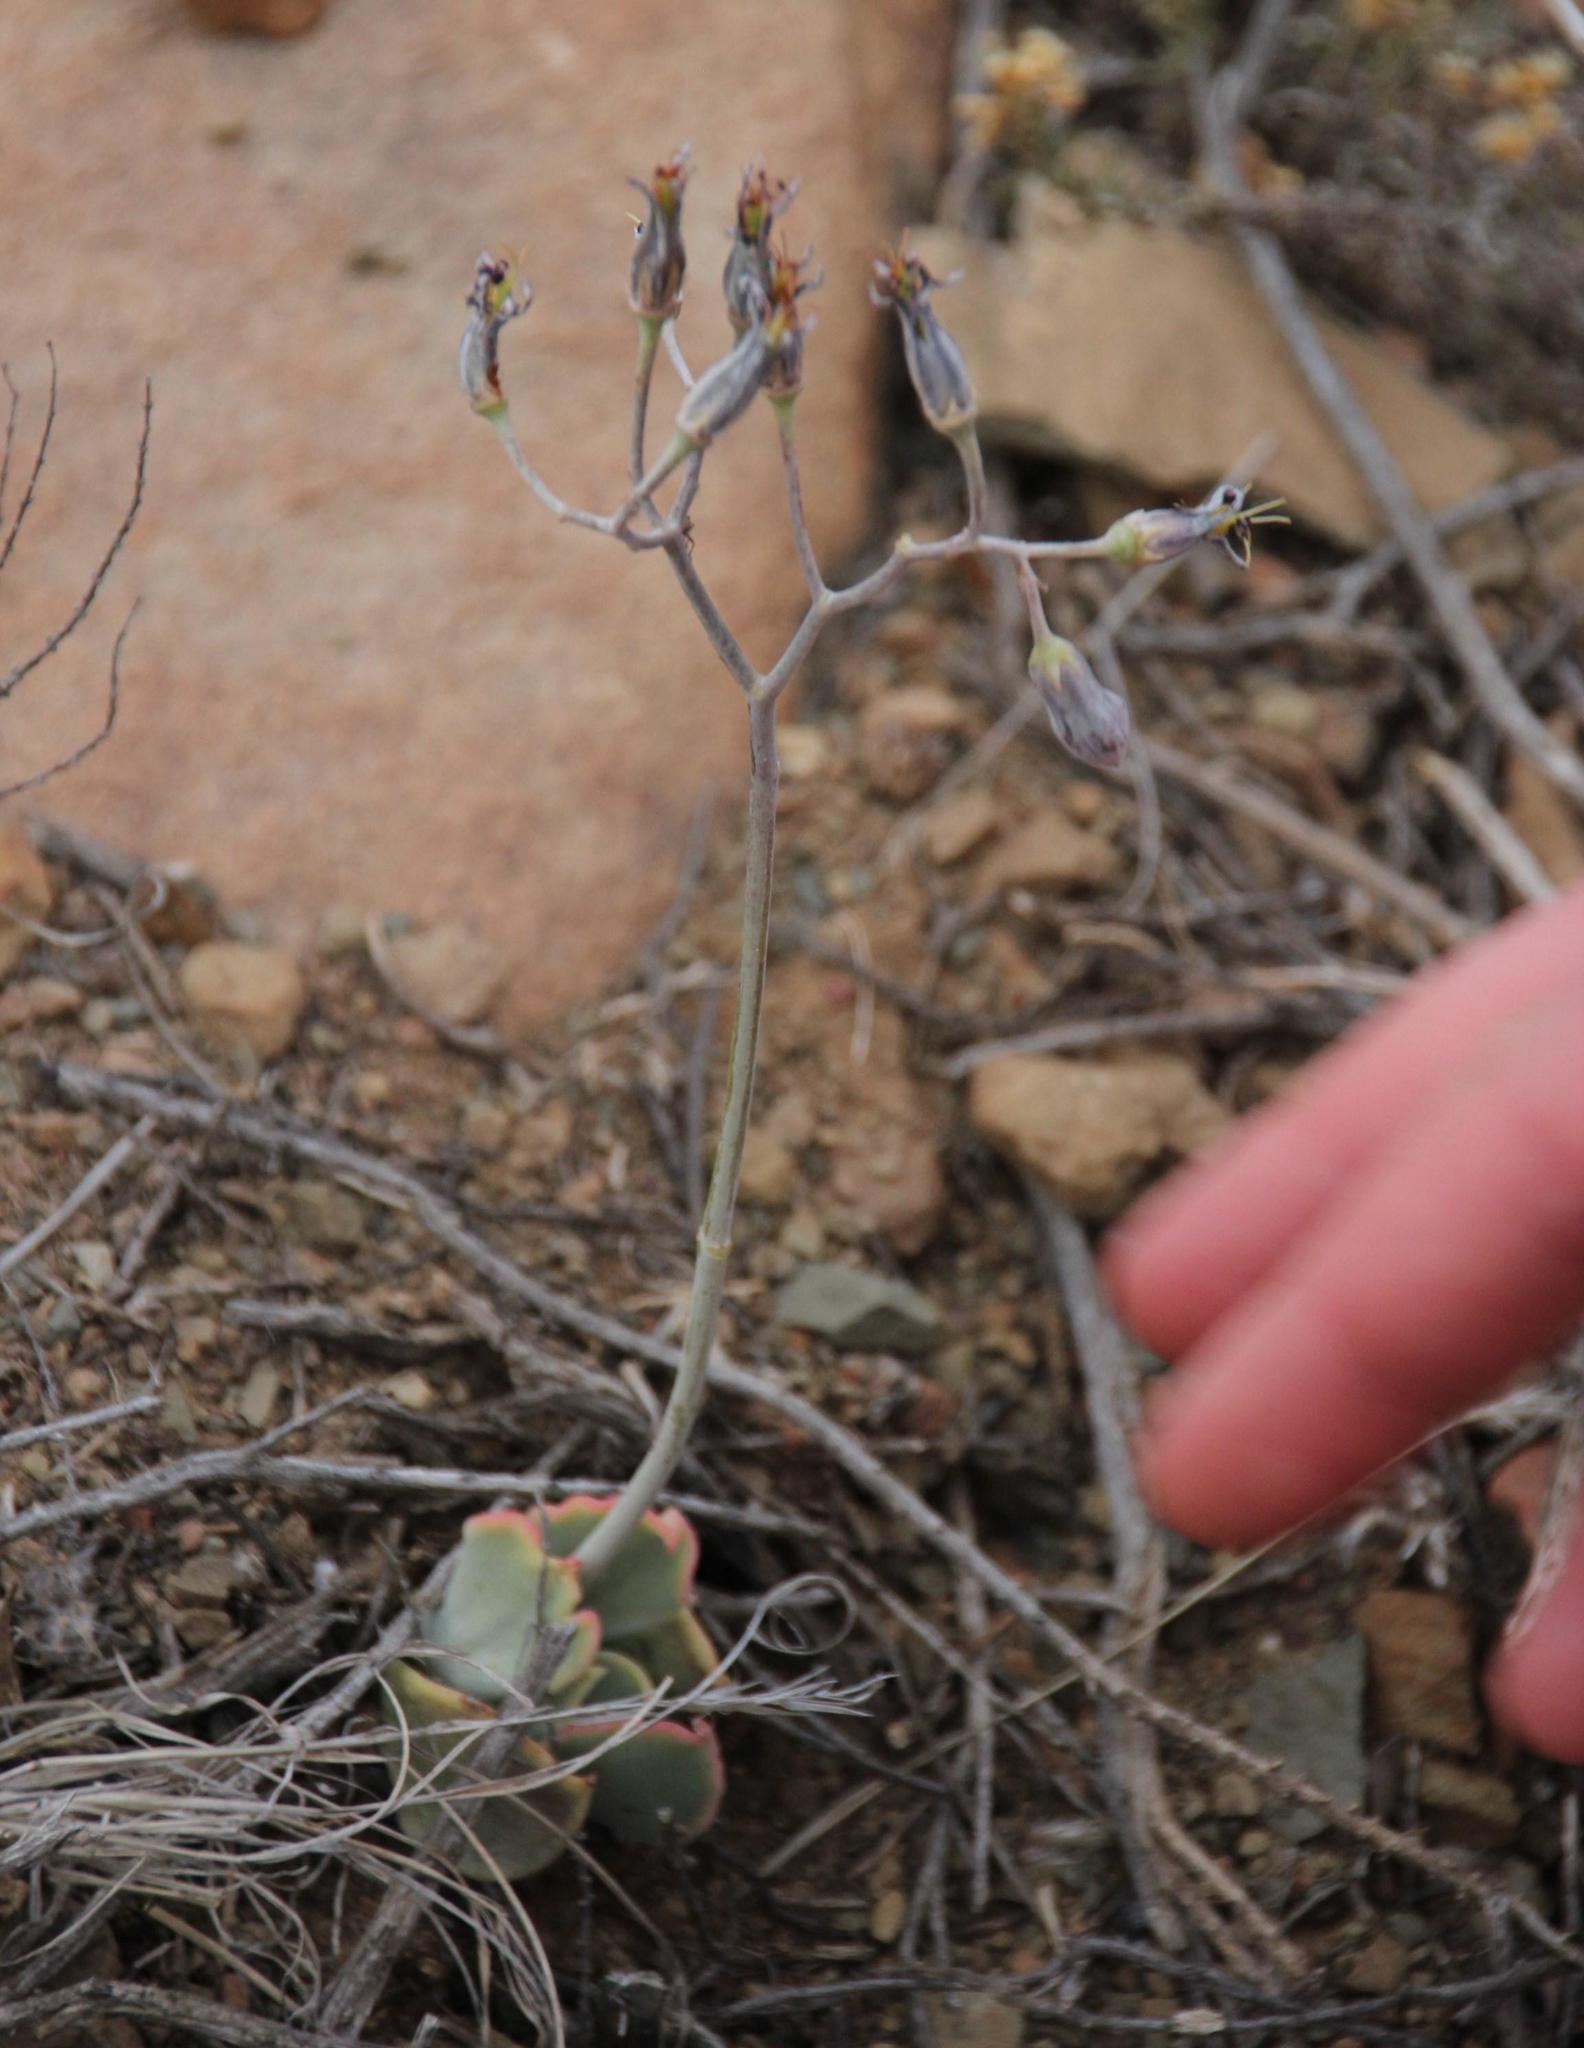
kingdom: Plantae
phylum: Tracheophyta
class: Magnoliopsida
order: Saxifragales
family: Crassulaceae
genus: Cotyledon
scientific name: Cotyledon orbiculata
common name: Pig's ear
